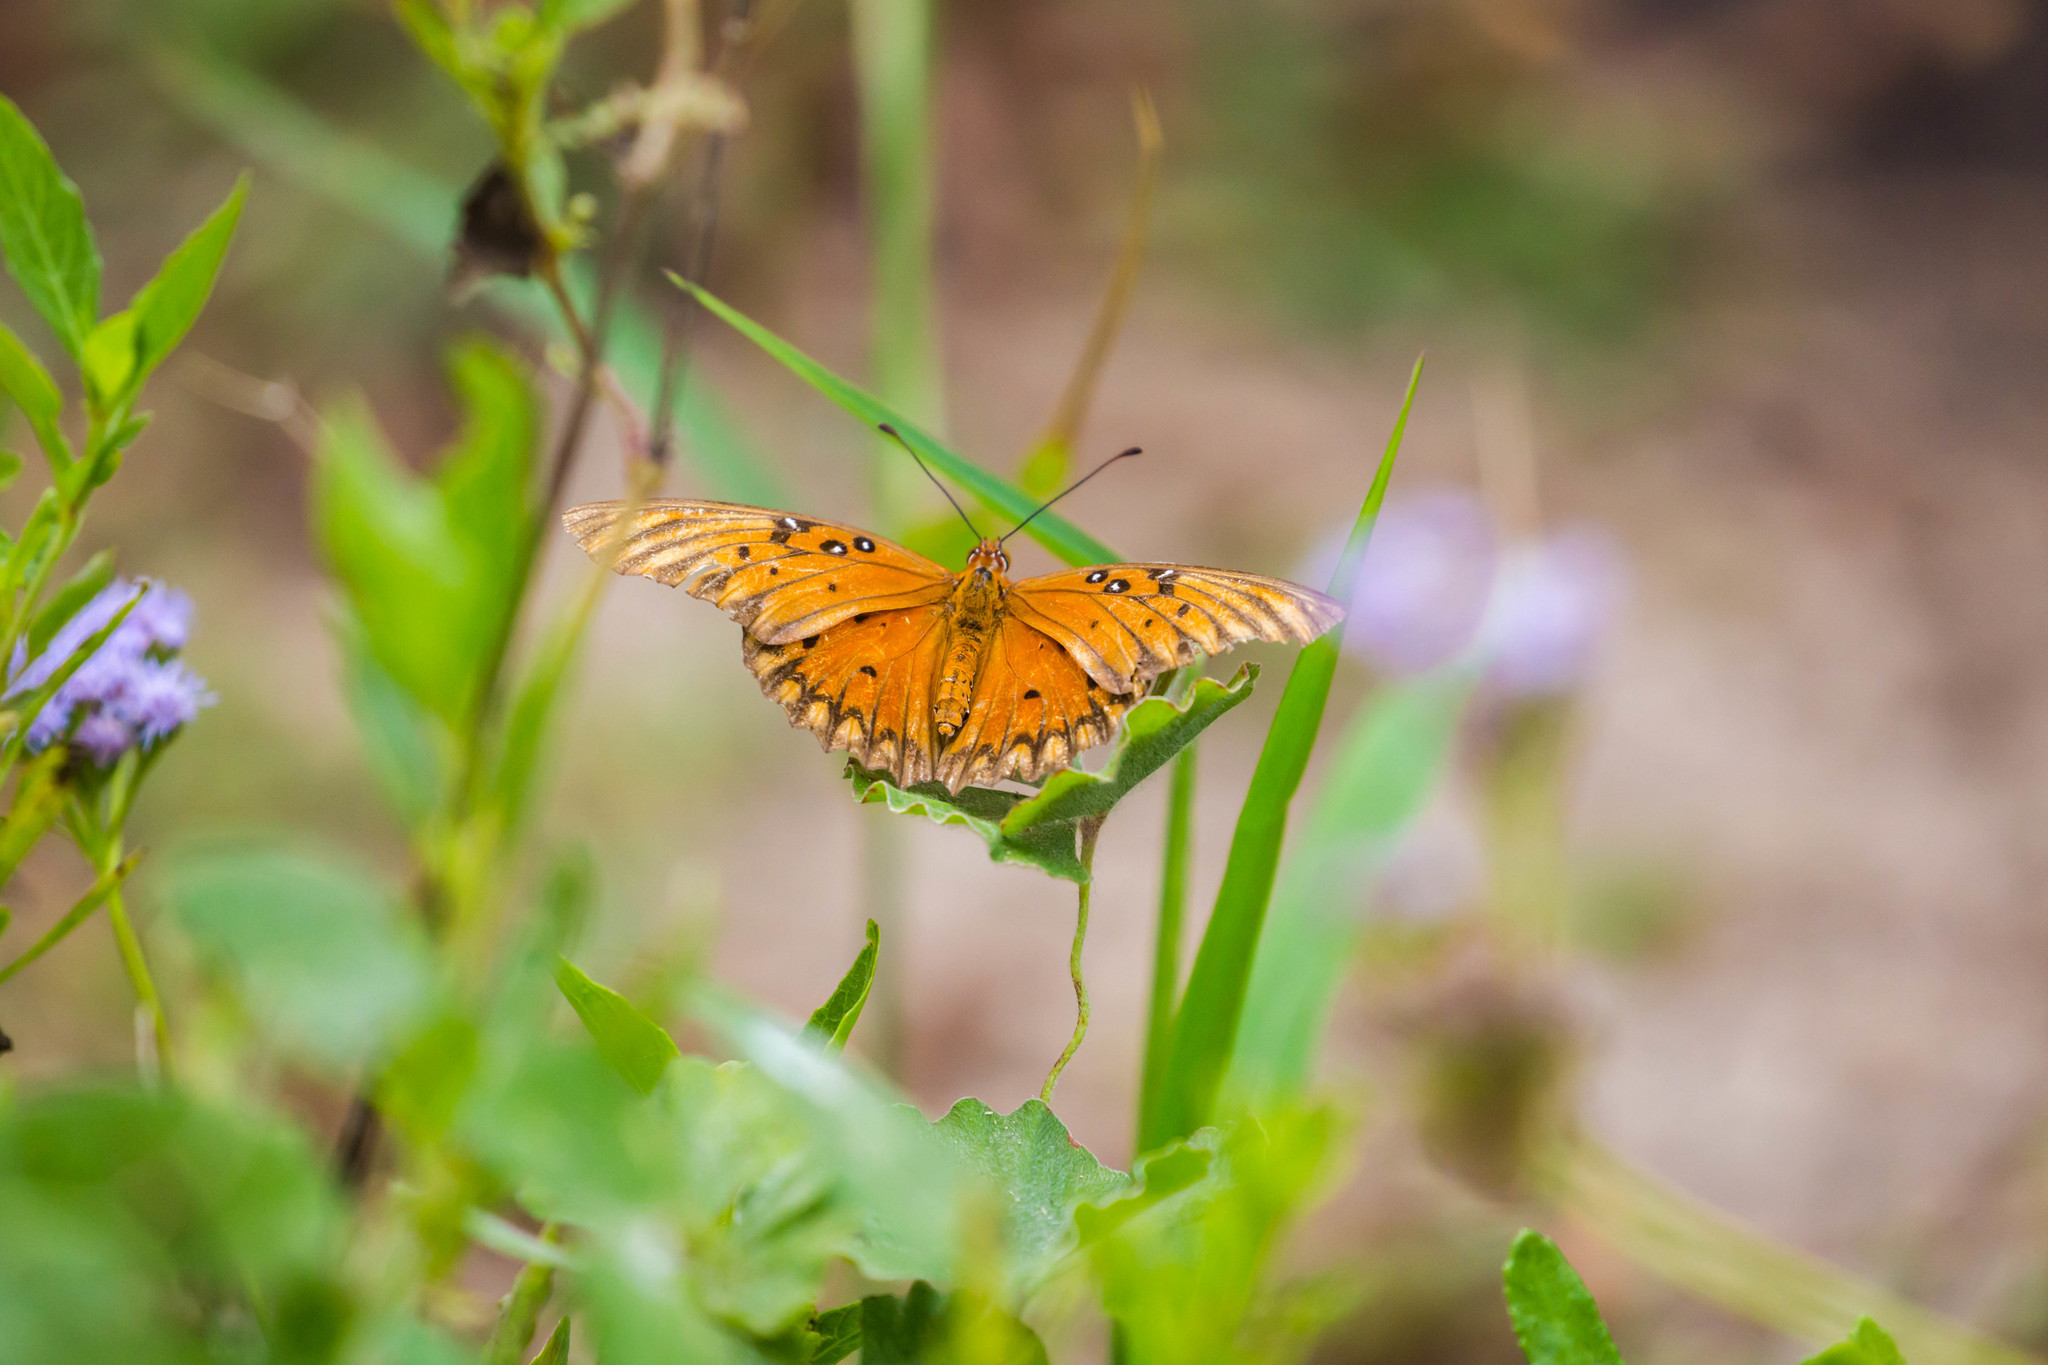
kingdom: Animalia
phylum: Arthropoda
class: Insecta
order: Lepidoptera
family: Nymphalidae
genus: Dione
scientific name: Dione vanillae
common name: Gulf fritillary
